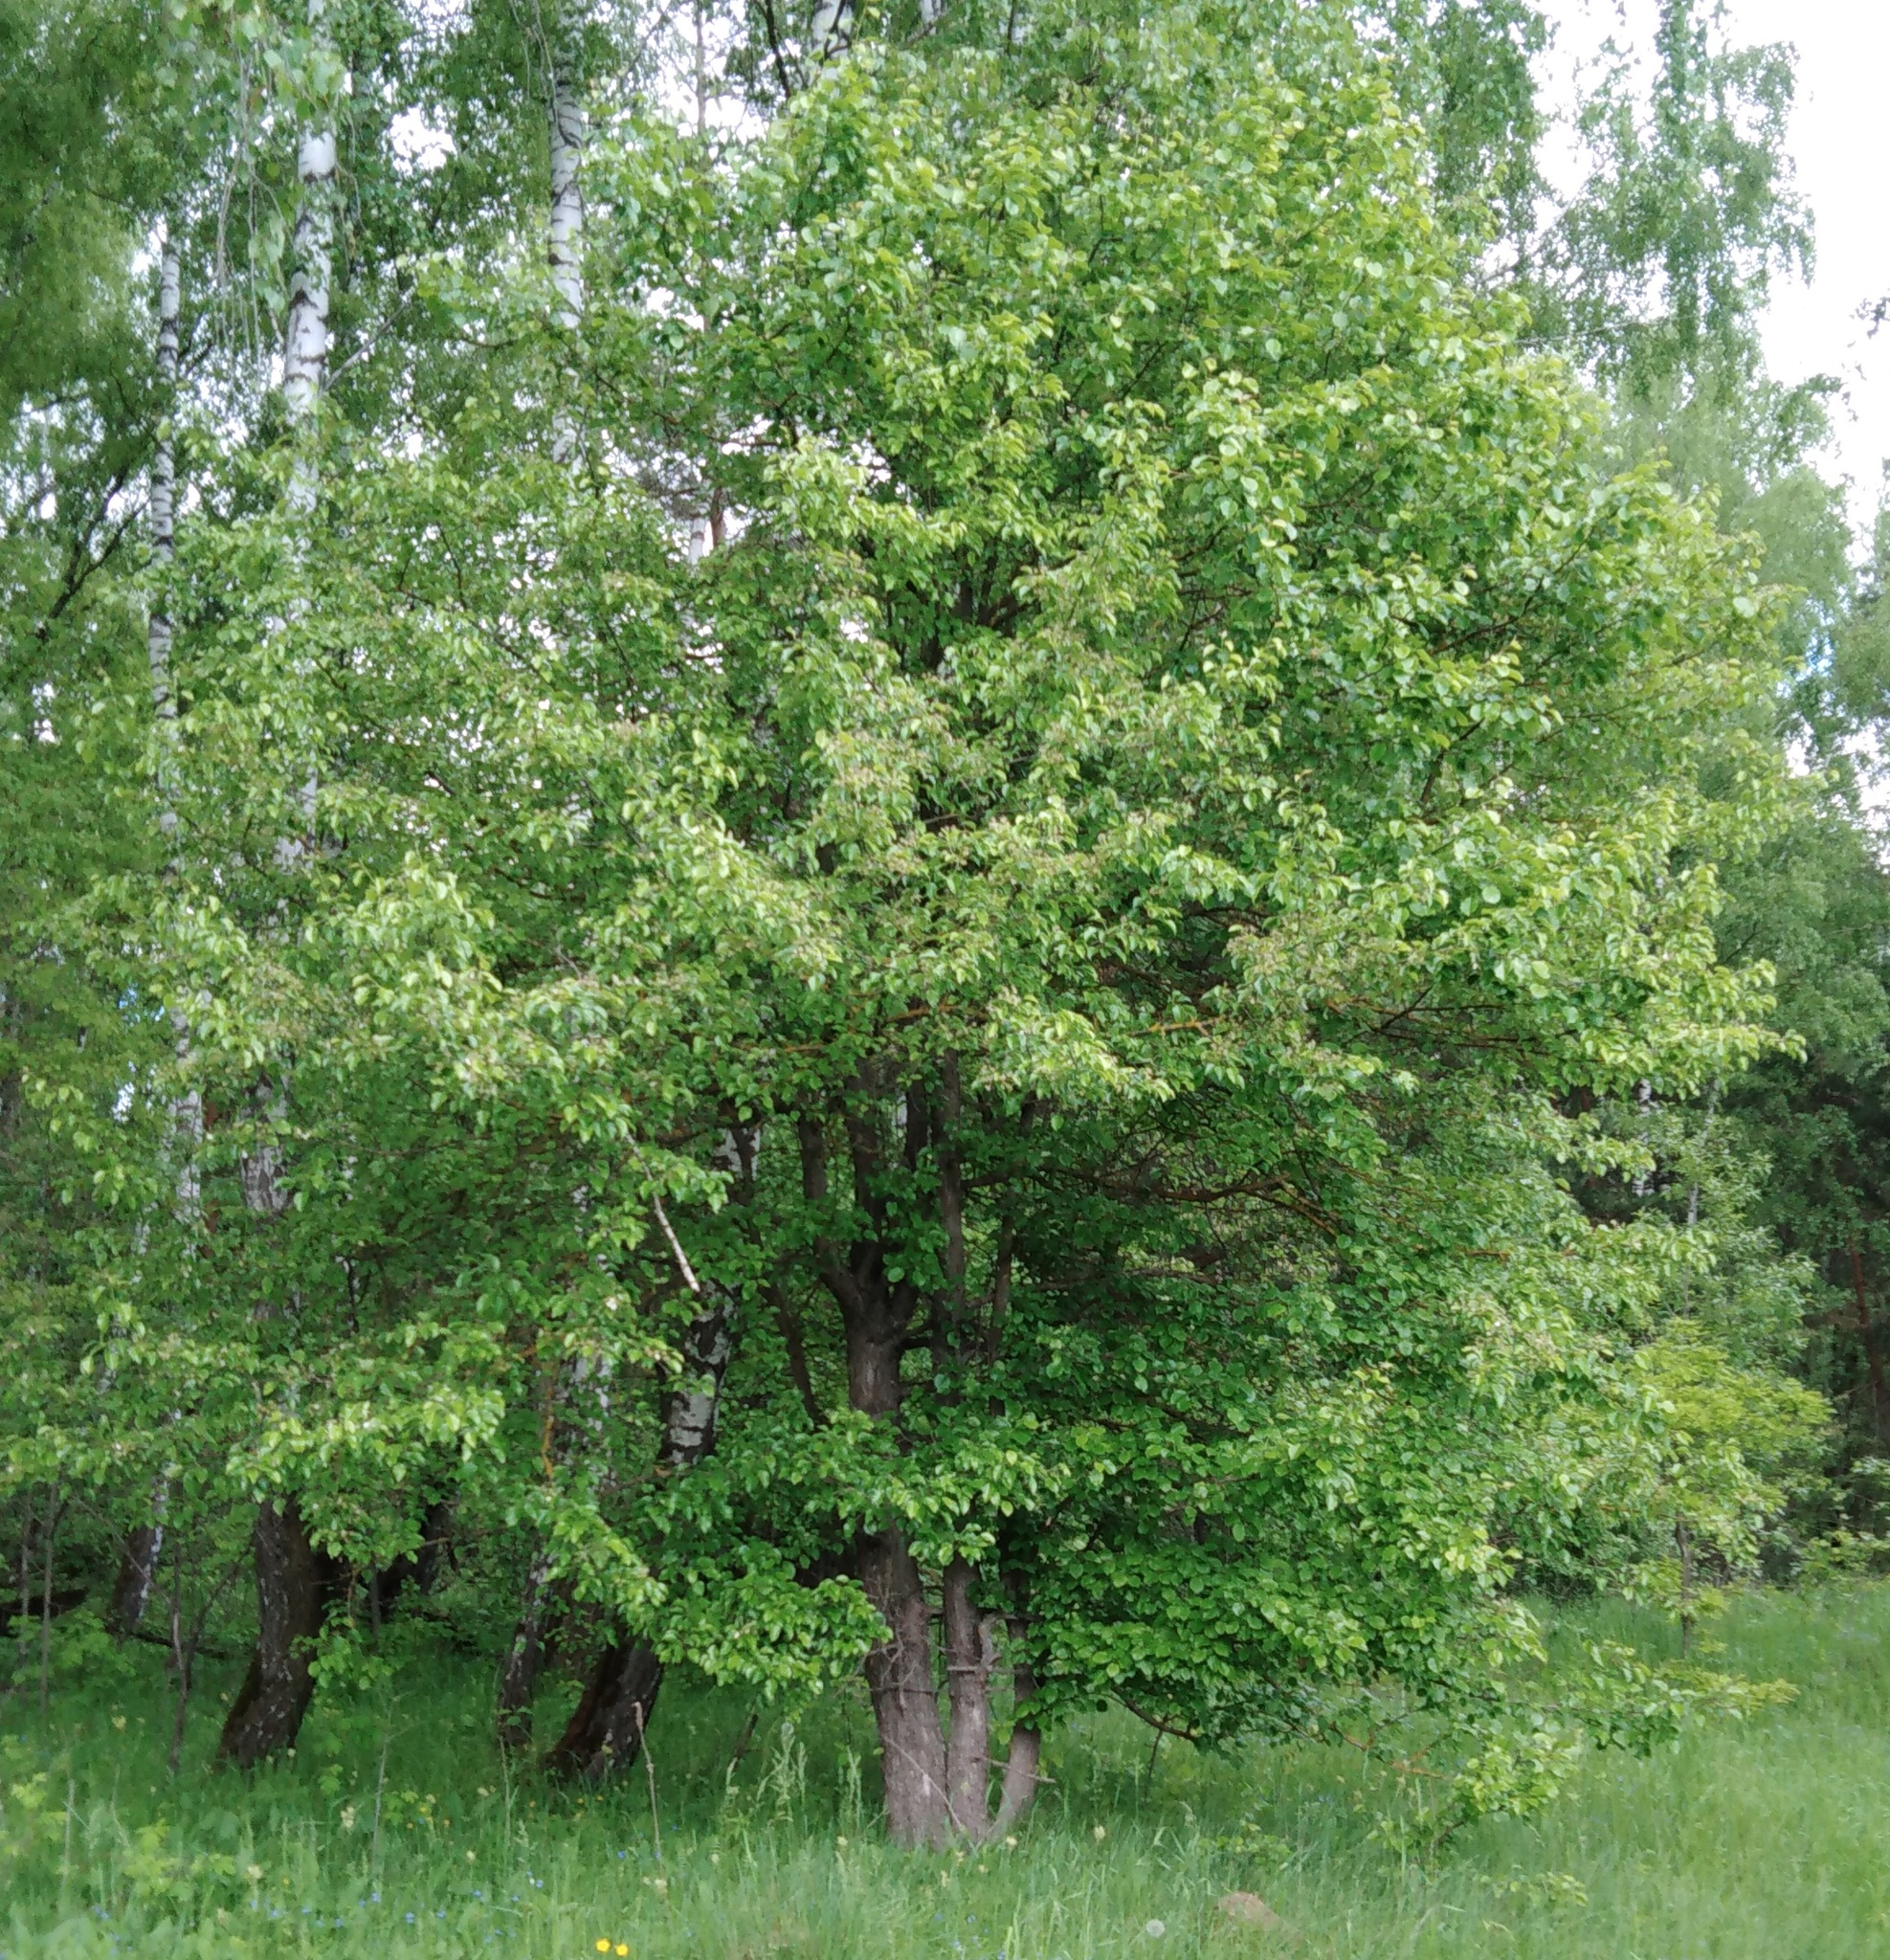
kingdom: Plantae
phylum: Tracheophyta
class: Magnoliopsida
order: Malvales
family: Malvaceae
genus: Tilia
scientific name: Tilia cordata
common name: Small-leaved lime
